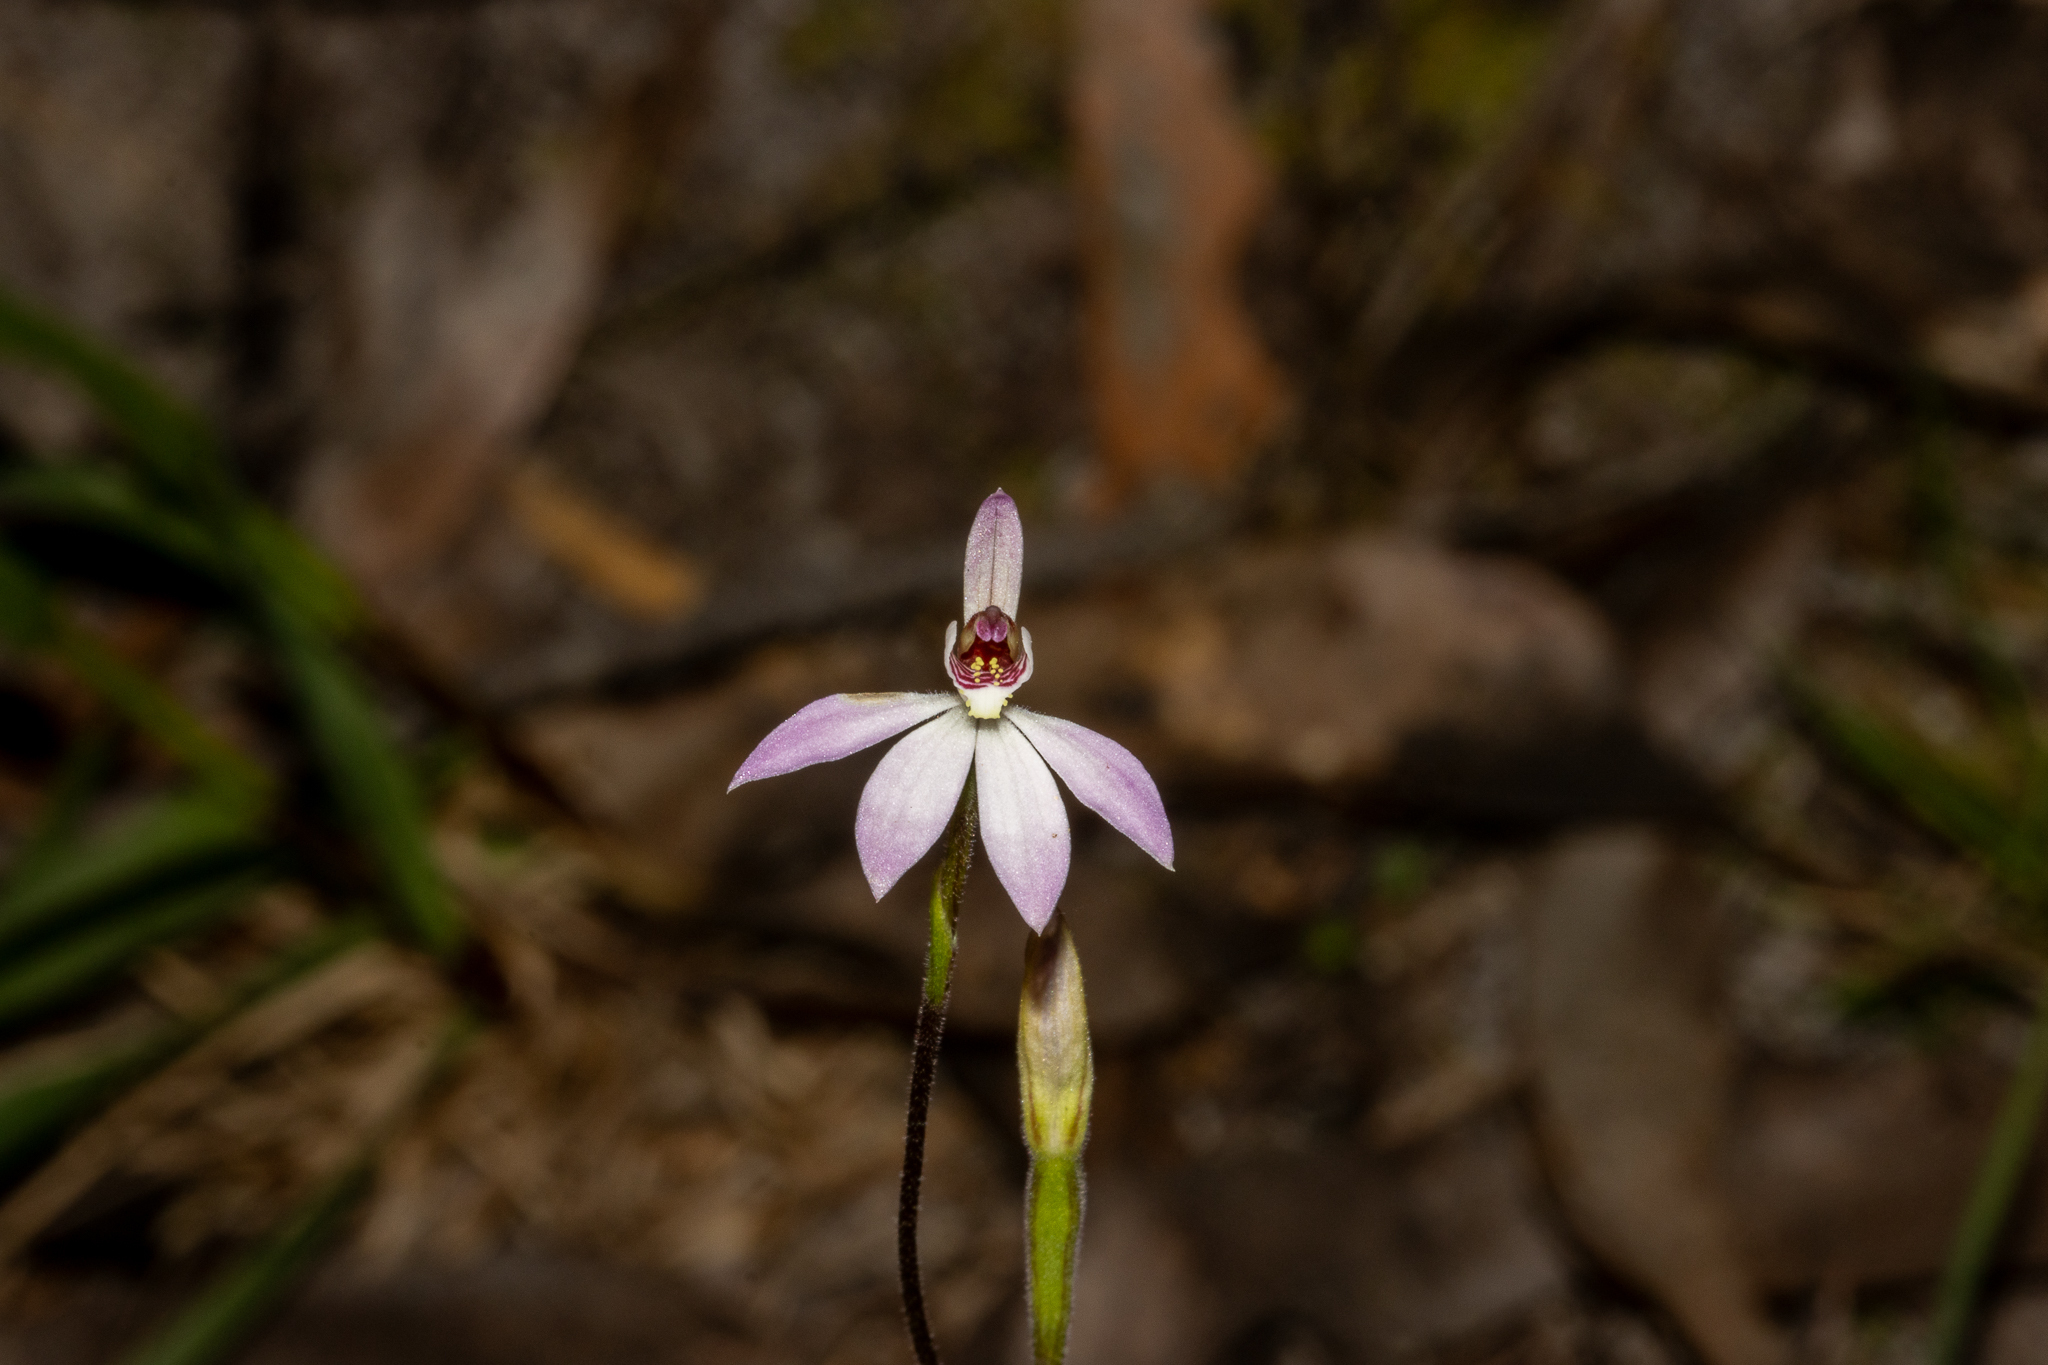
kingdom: Plantae
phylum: Tracheophyta
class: Liliopsida
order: Asparagales
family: Orchidaceae
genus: Caladenia
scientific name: Caladenia carnea
